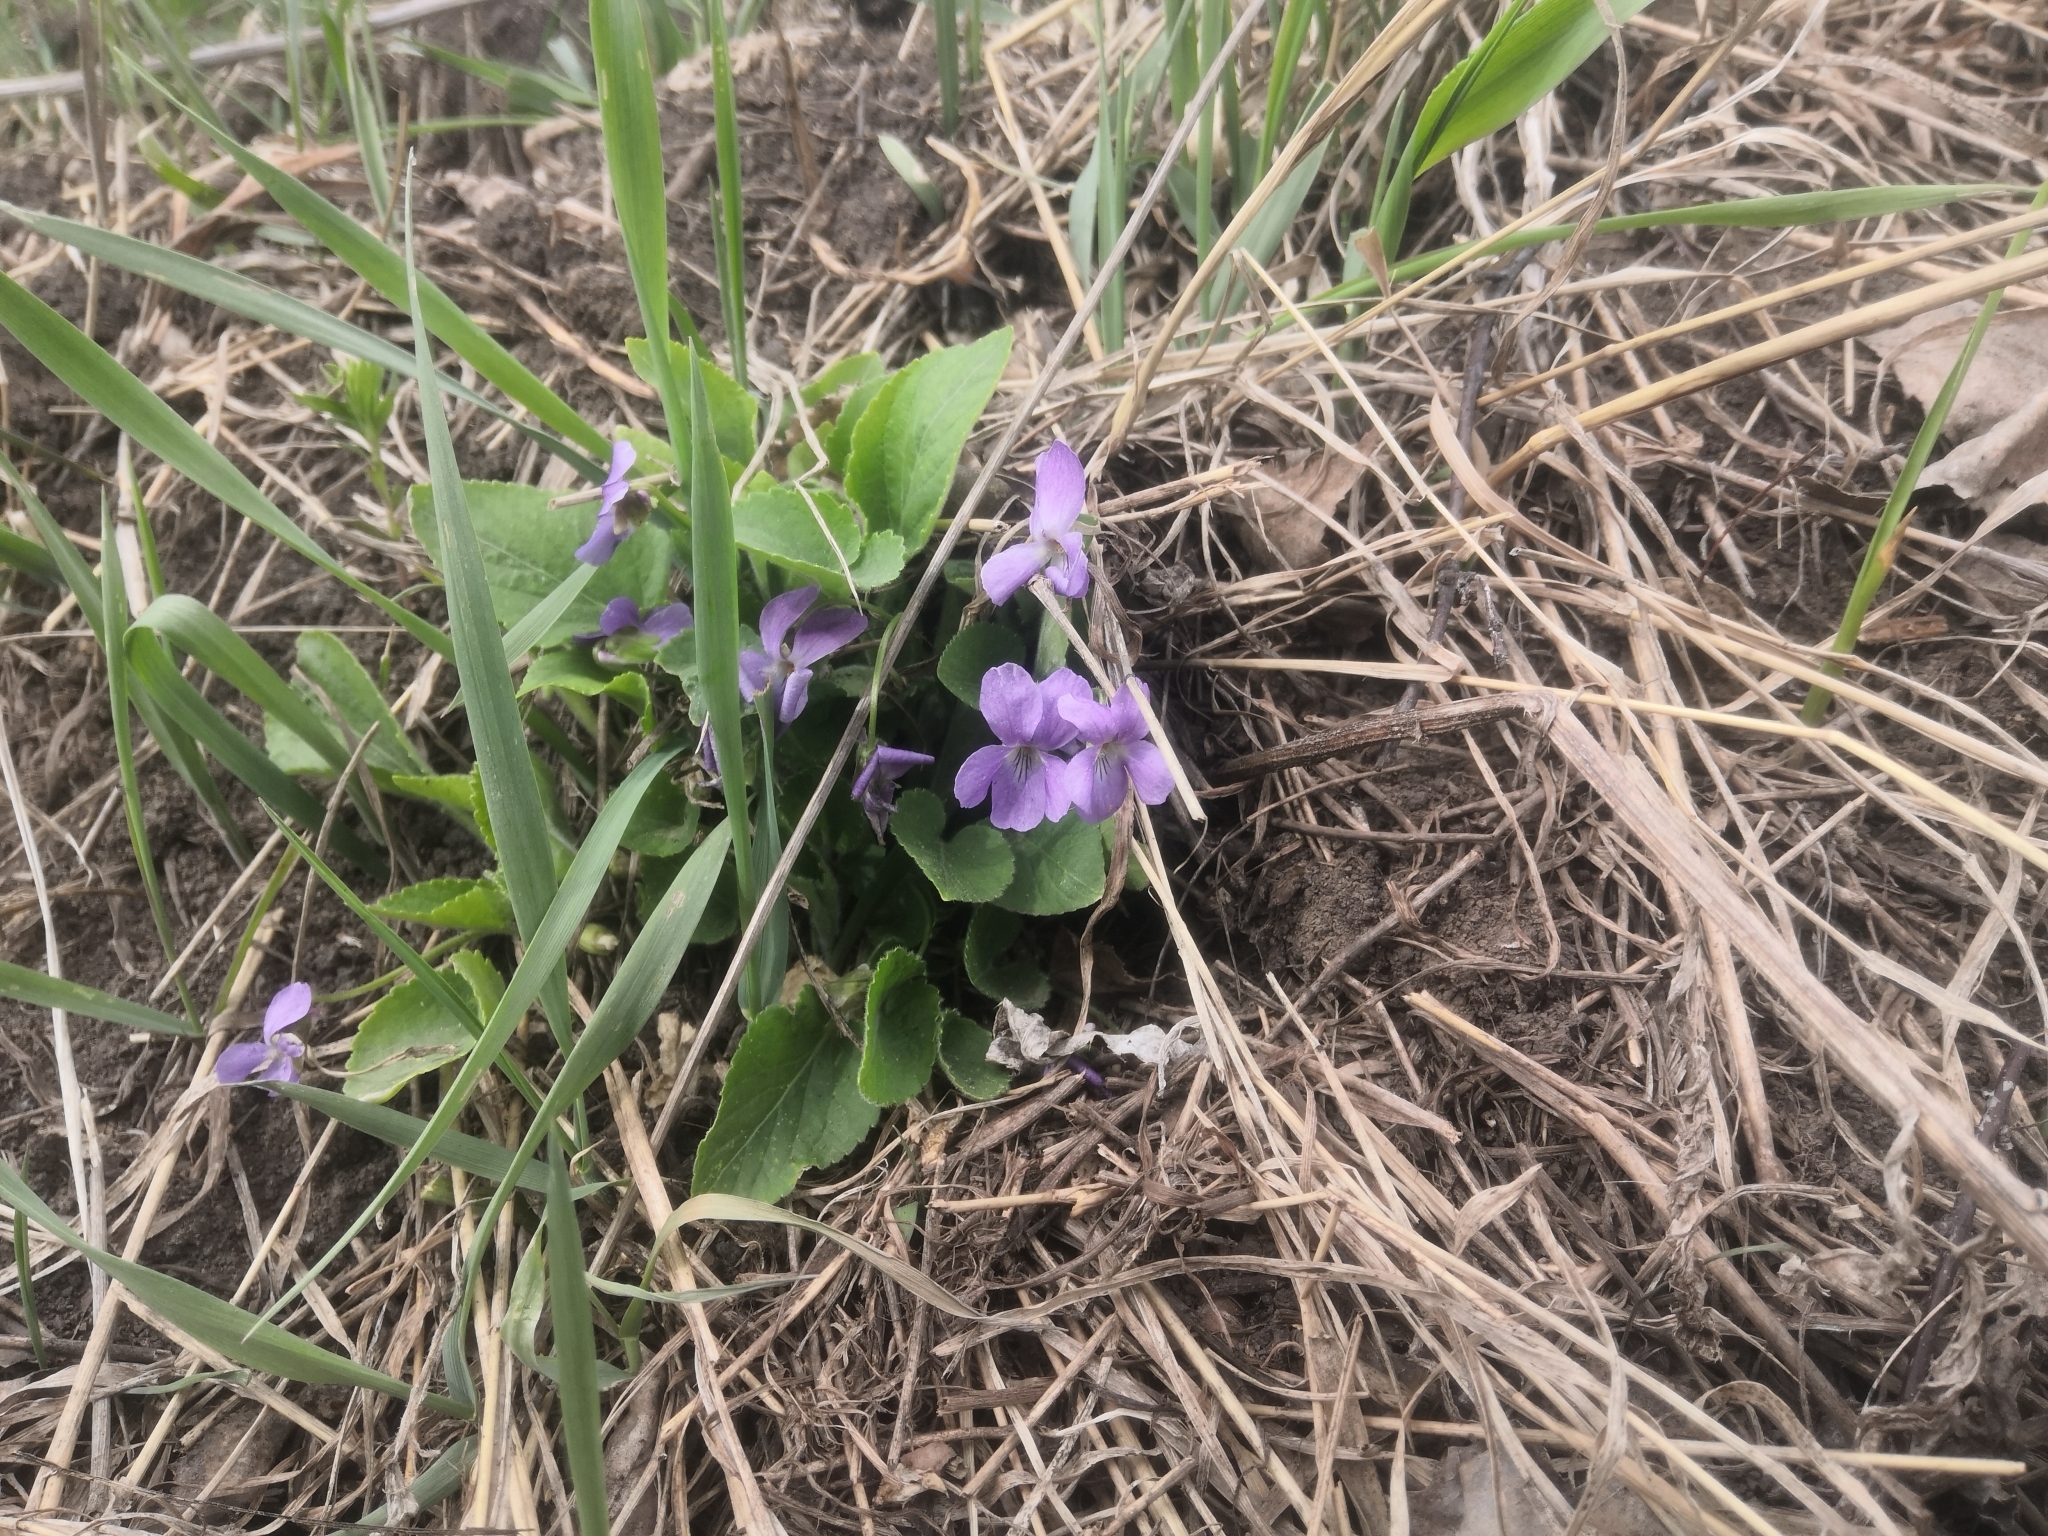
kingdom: Plantae
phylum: Tracheophyta
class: Magnoliopsida
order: Malpighiales
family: Violaceae
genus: Viola
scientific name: Viola hirta
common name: Hairy violet
